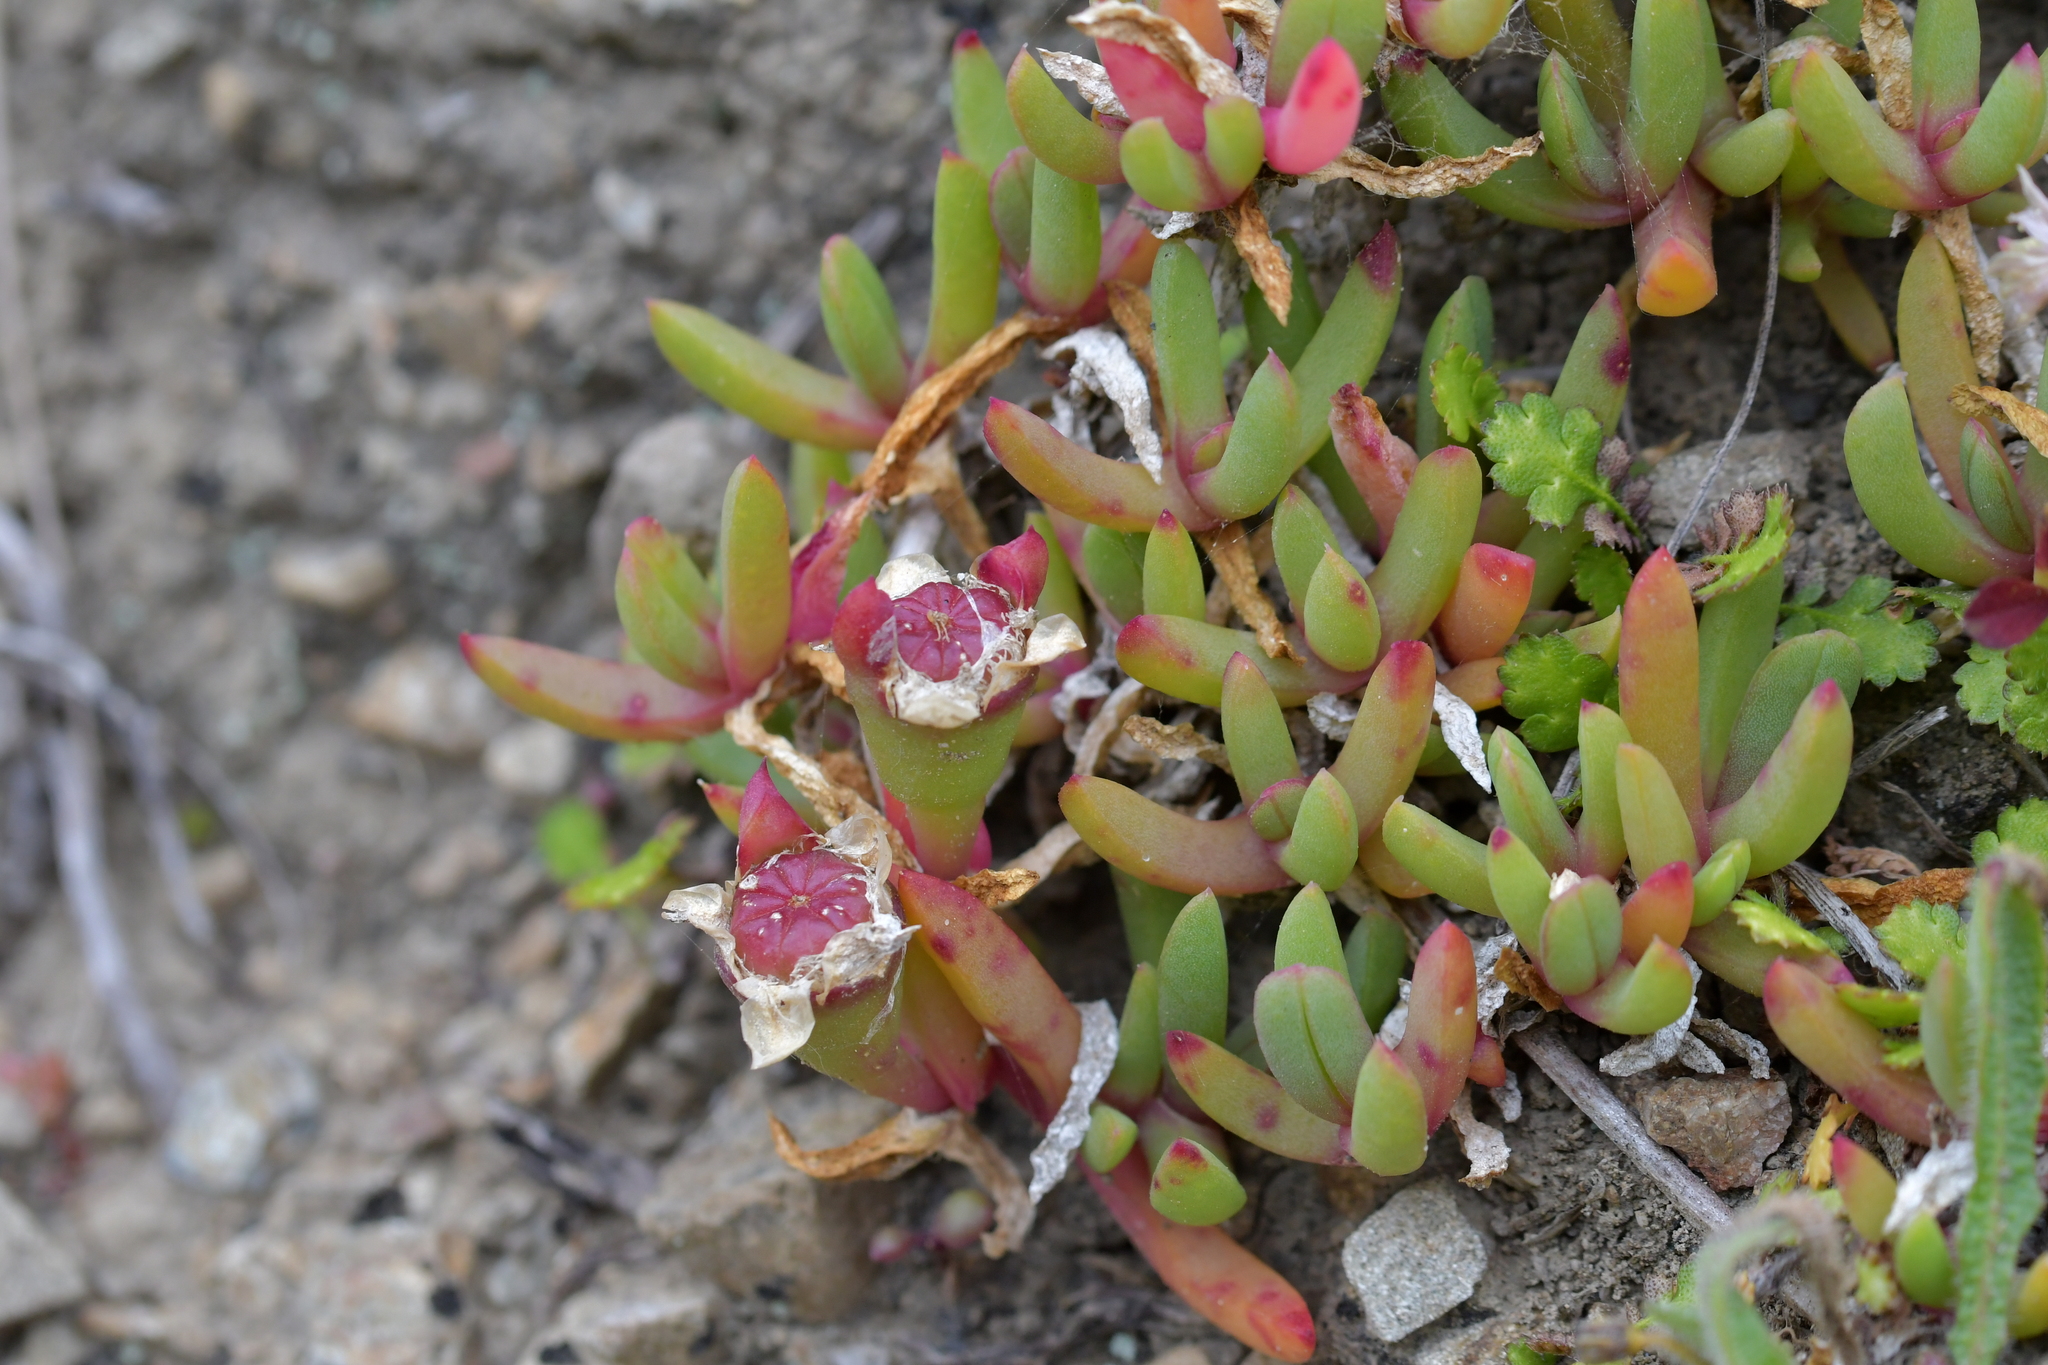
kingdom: Plantae
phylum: Tracheophyta
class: Magnoliopsida
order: Caryophyllales
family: Aizoaceae
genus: Disphyma
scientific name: Disphyma australe
